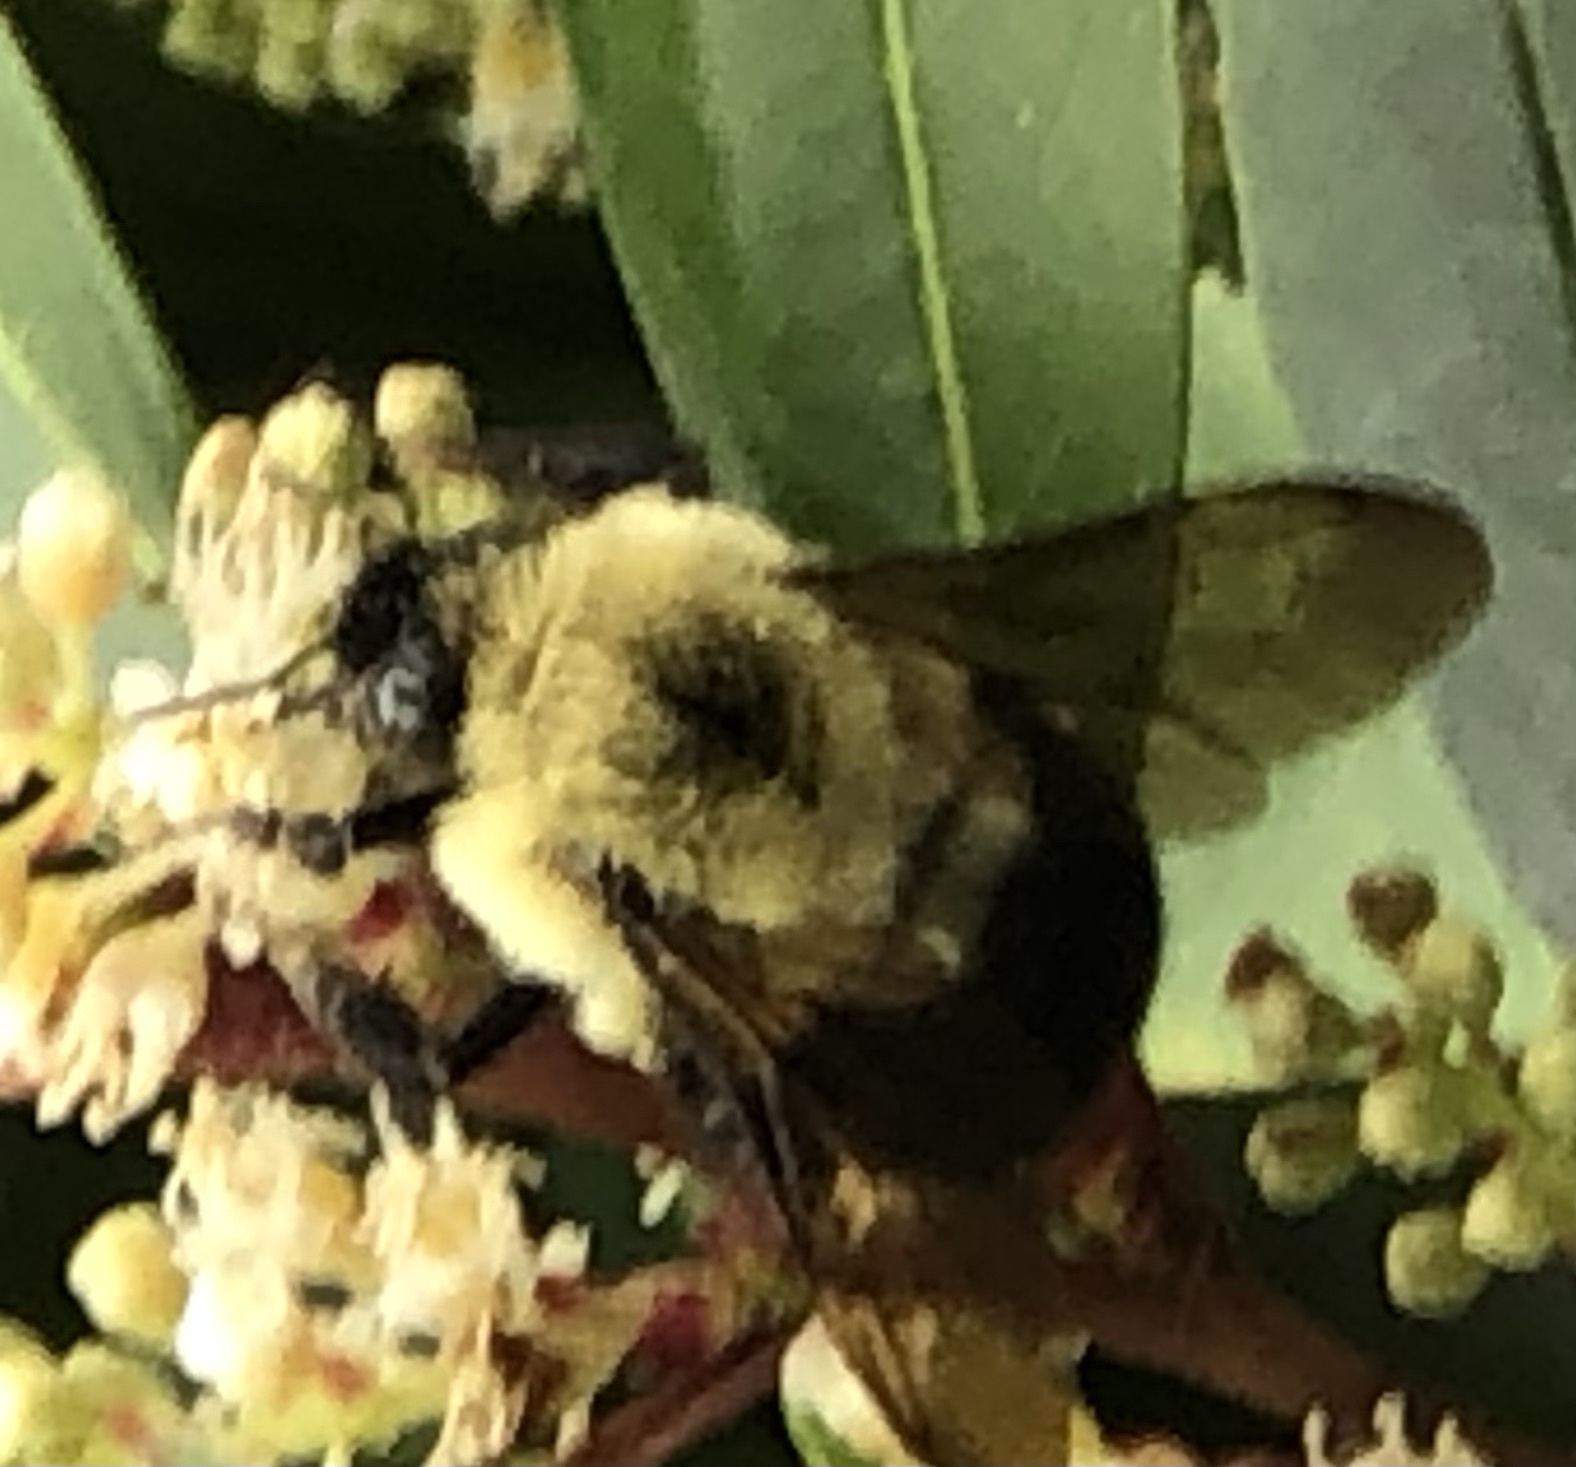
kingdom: Animalia
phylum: Arthropoda
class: Insecta
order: Hymenoptera
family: Apidae
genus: Bombus
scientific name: Bombus bimaculatus
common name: Two-spotted bumble bee
